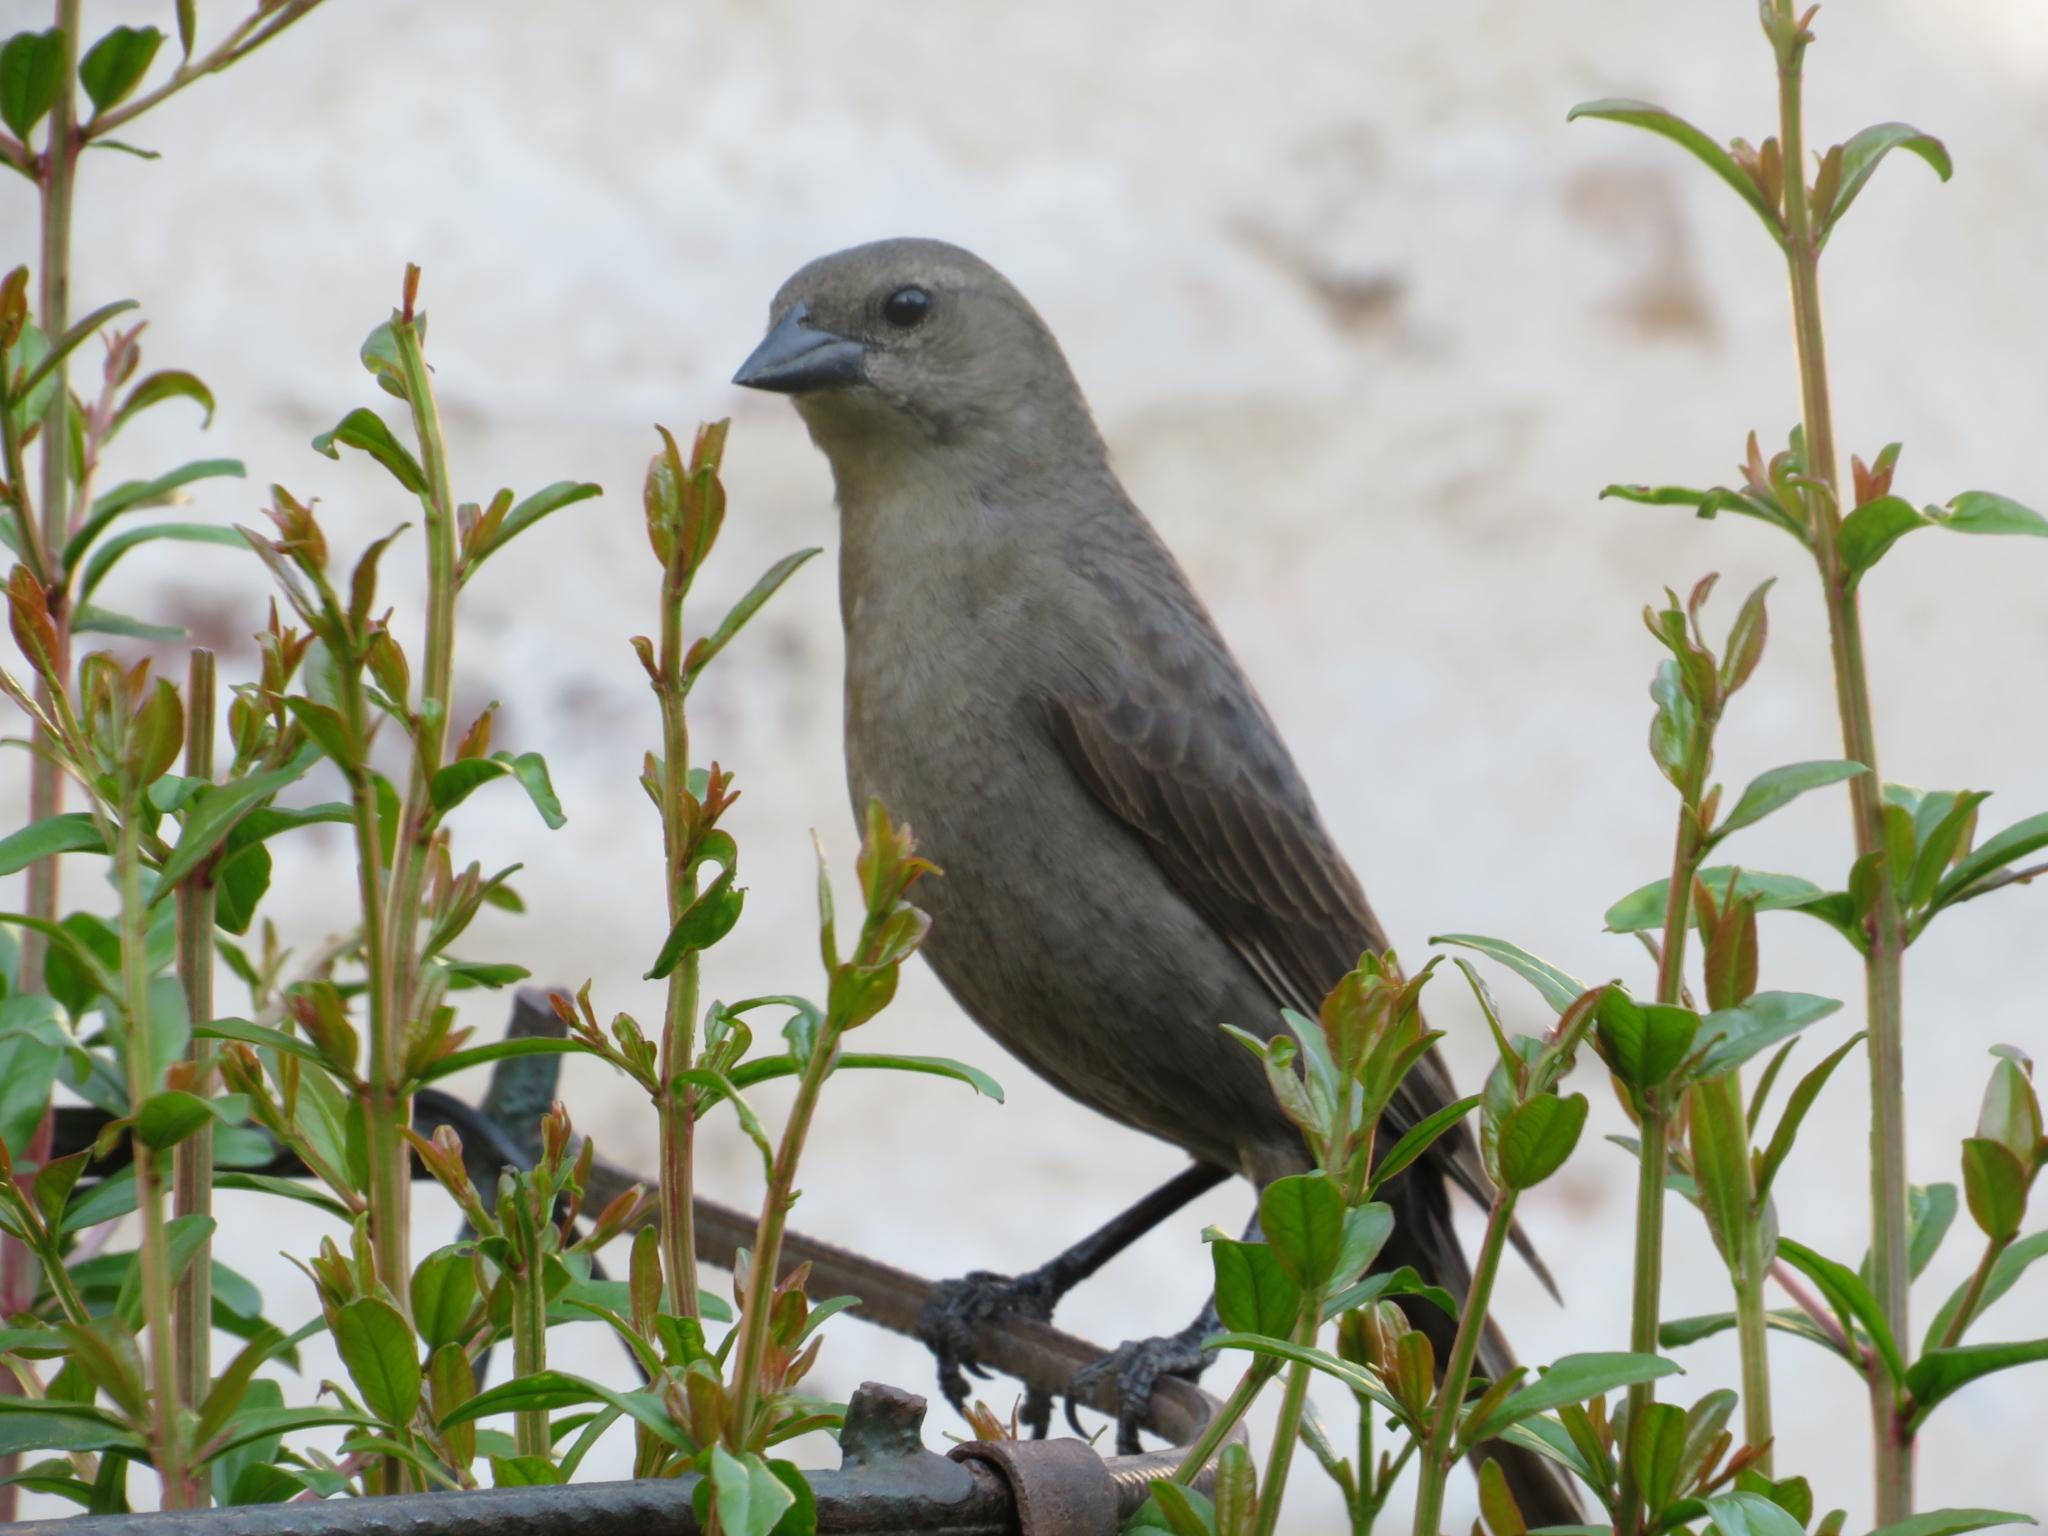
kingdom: Animalia
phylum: Chordata
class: Aves
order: Passeriformes
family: Icteridae
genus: Molothrus
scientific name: Molothrus bonariensis
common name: Shiny cowbird
